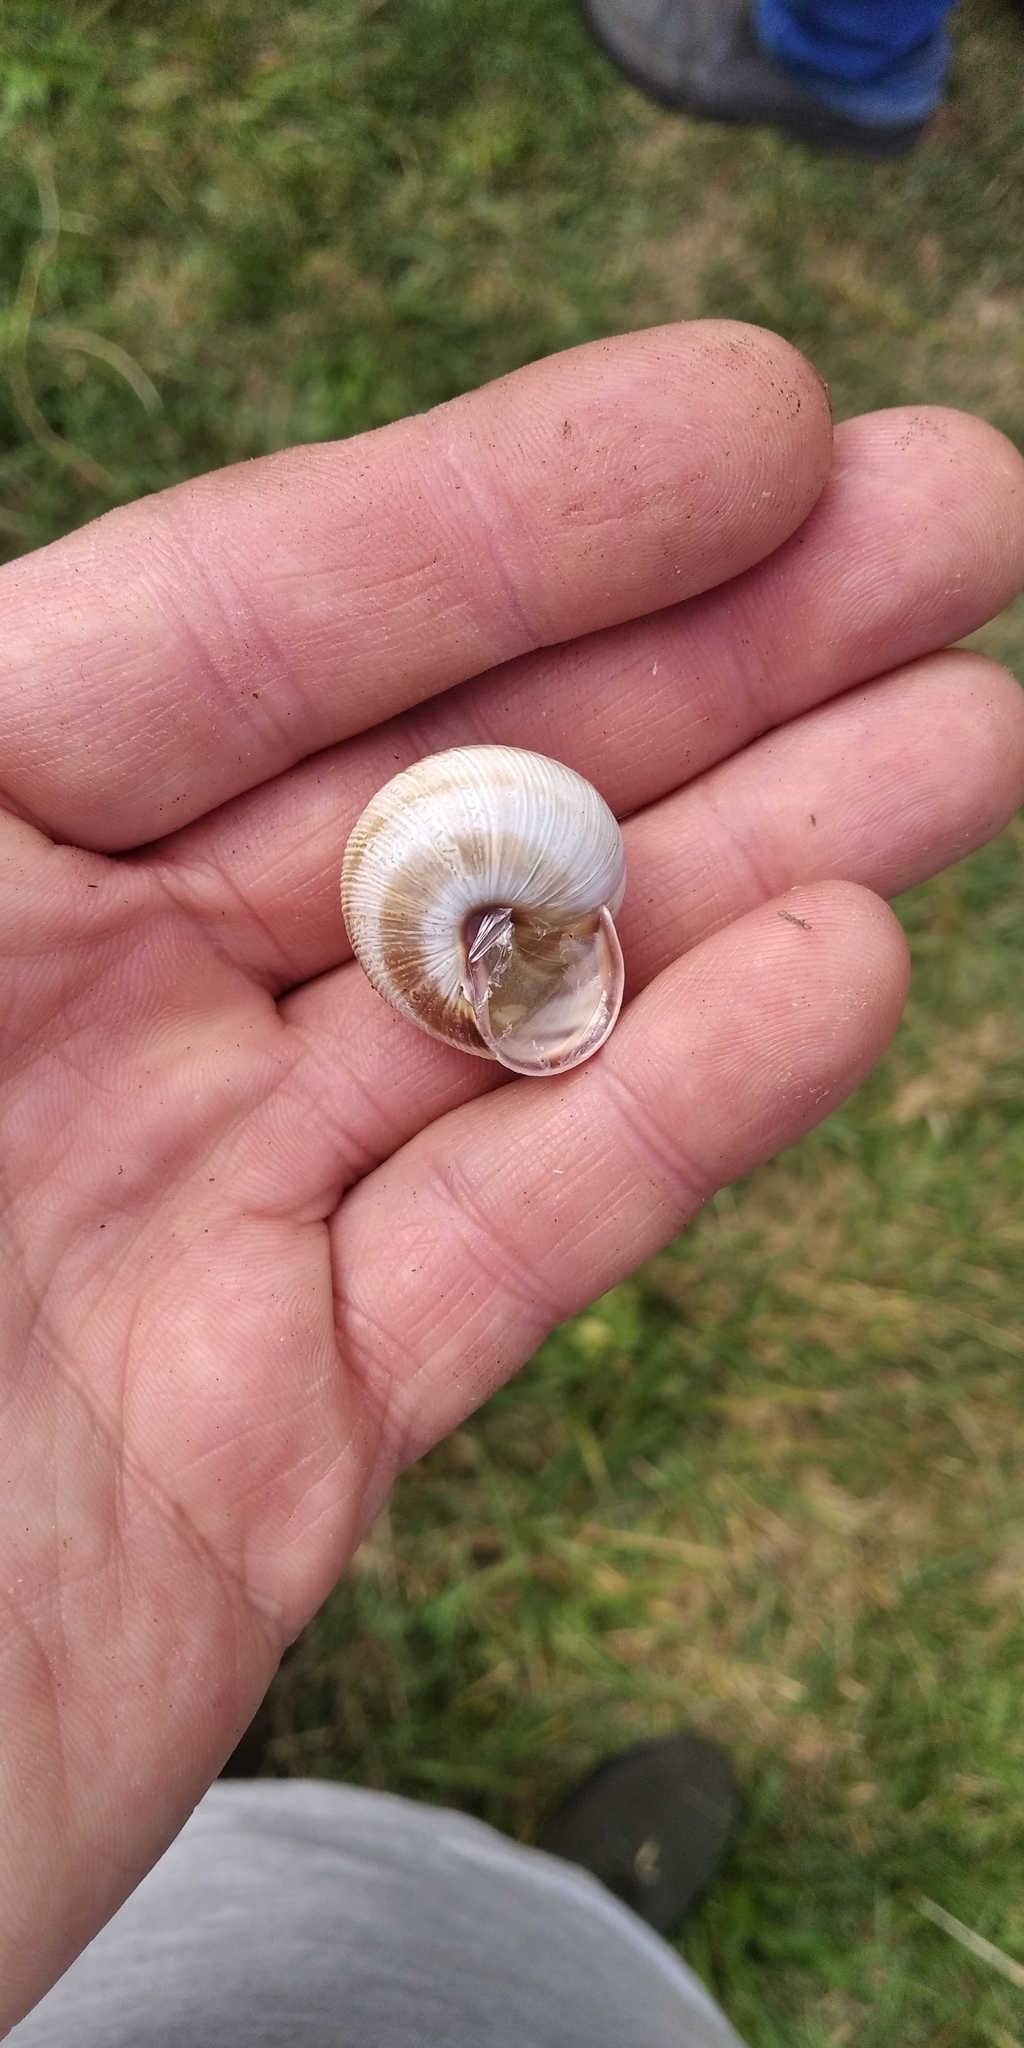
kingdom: Animalia
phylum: Mollusca
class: Gastropoda
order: Stylommatophora
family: Helicidae
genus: Caucasotachea
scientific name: Caucasotachea vindobonensis
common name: European helicid land snail
